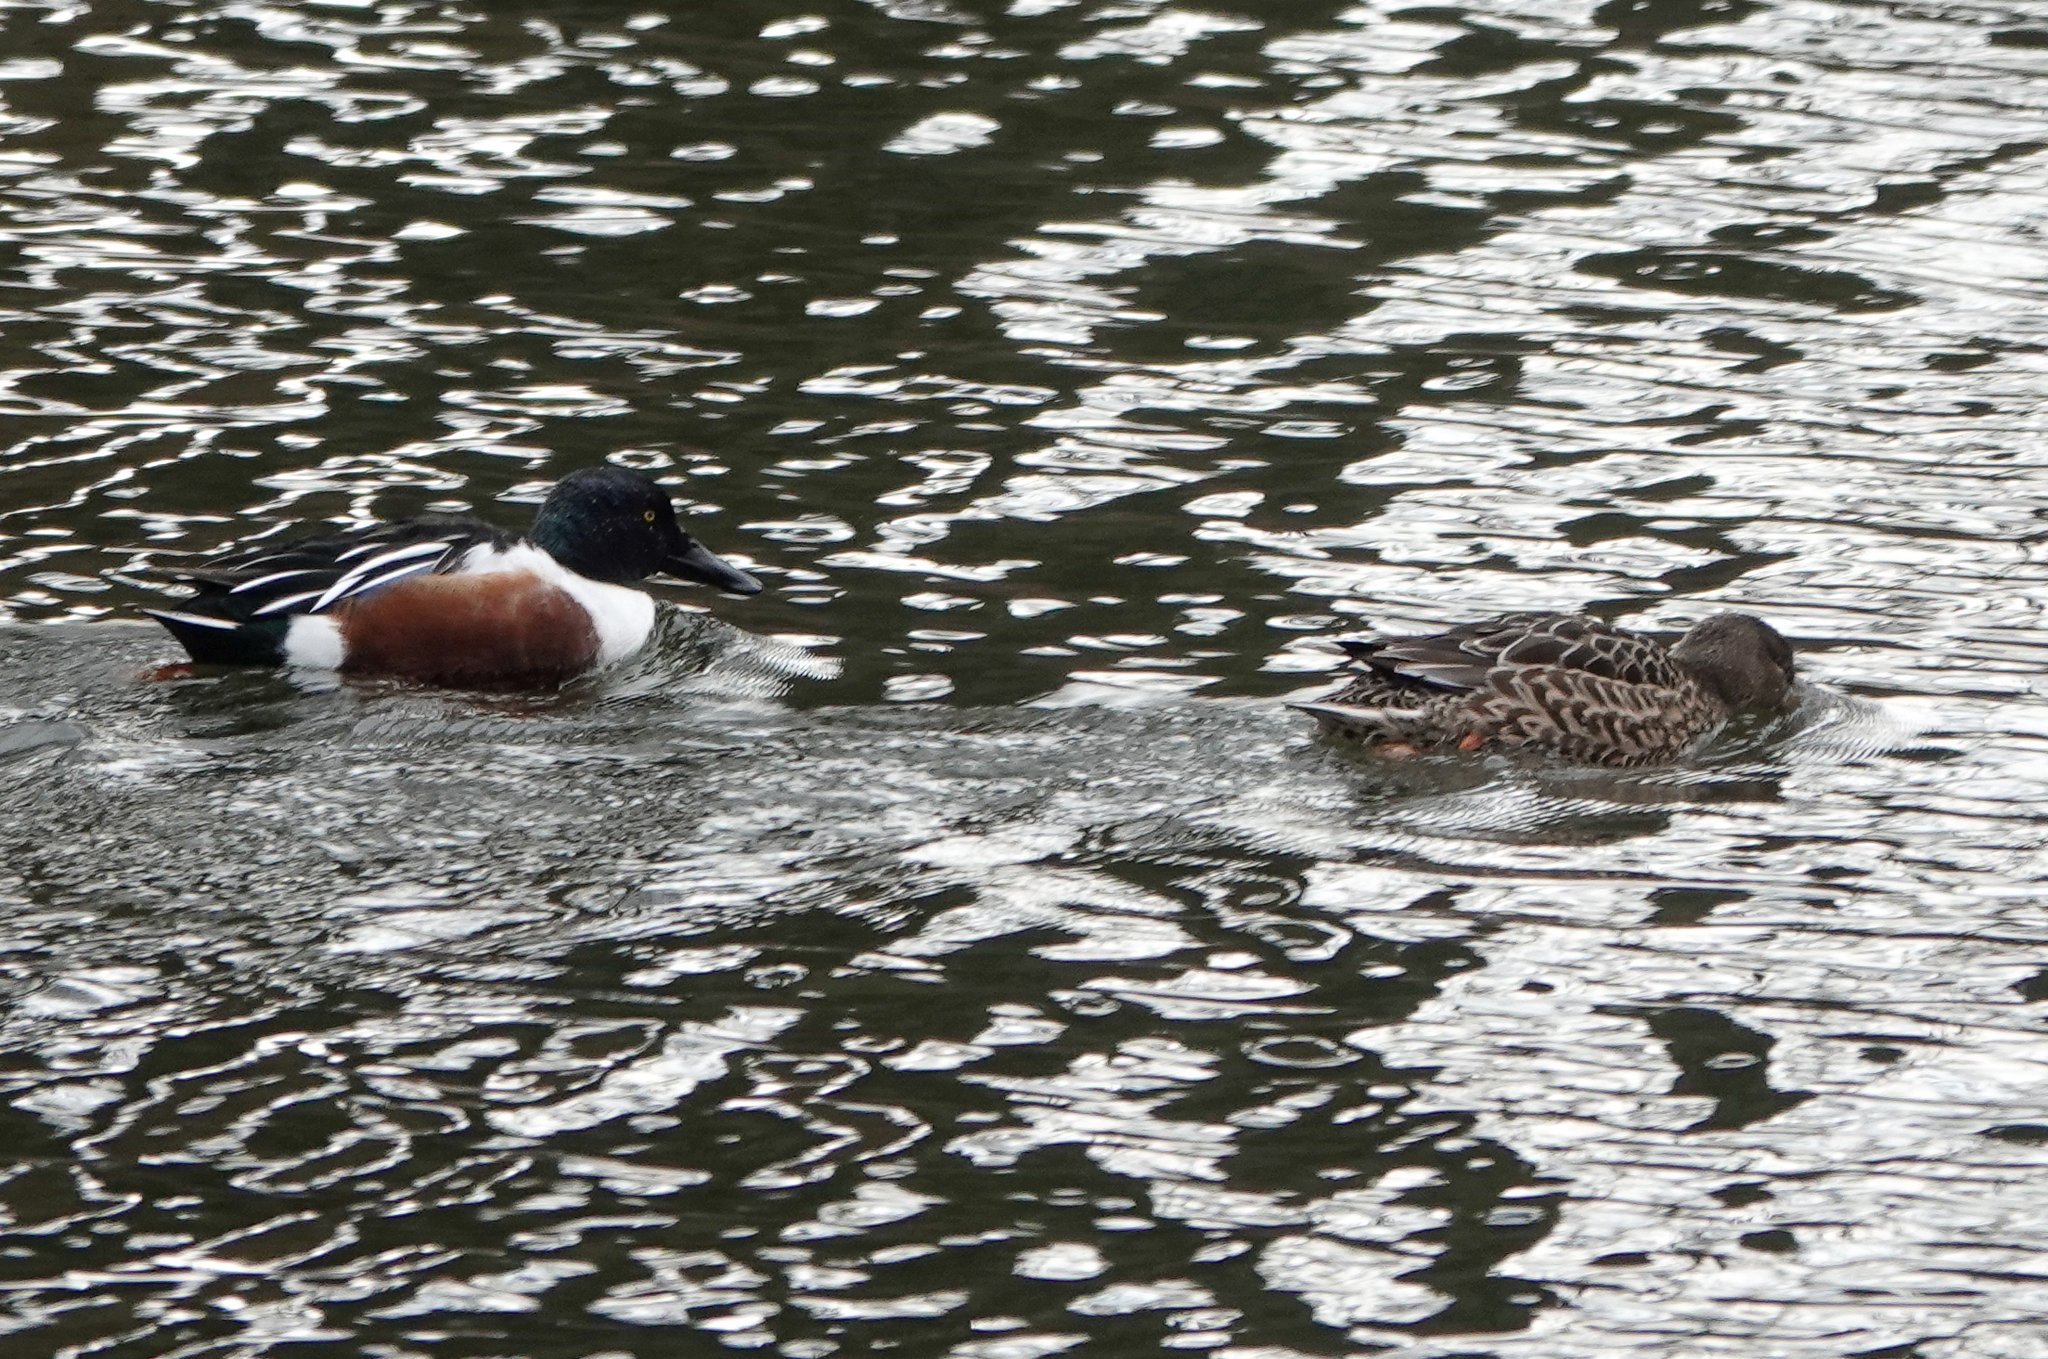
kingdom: Animalia
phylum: Chordata
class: Aves
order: Anseriformes
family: Anatidae
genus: Spatula
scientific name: Spatula clypeata
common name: Northern shoveler
